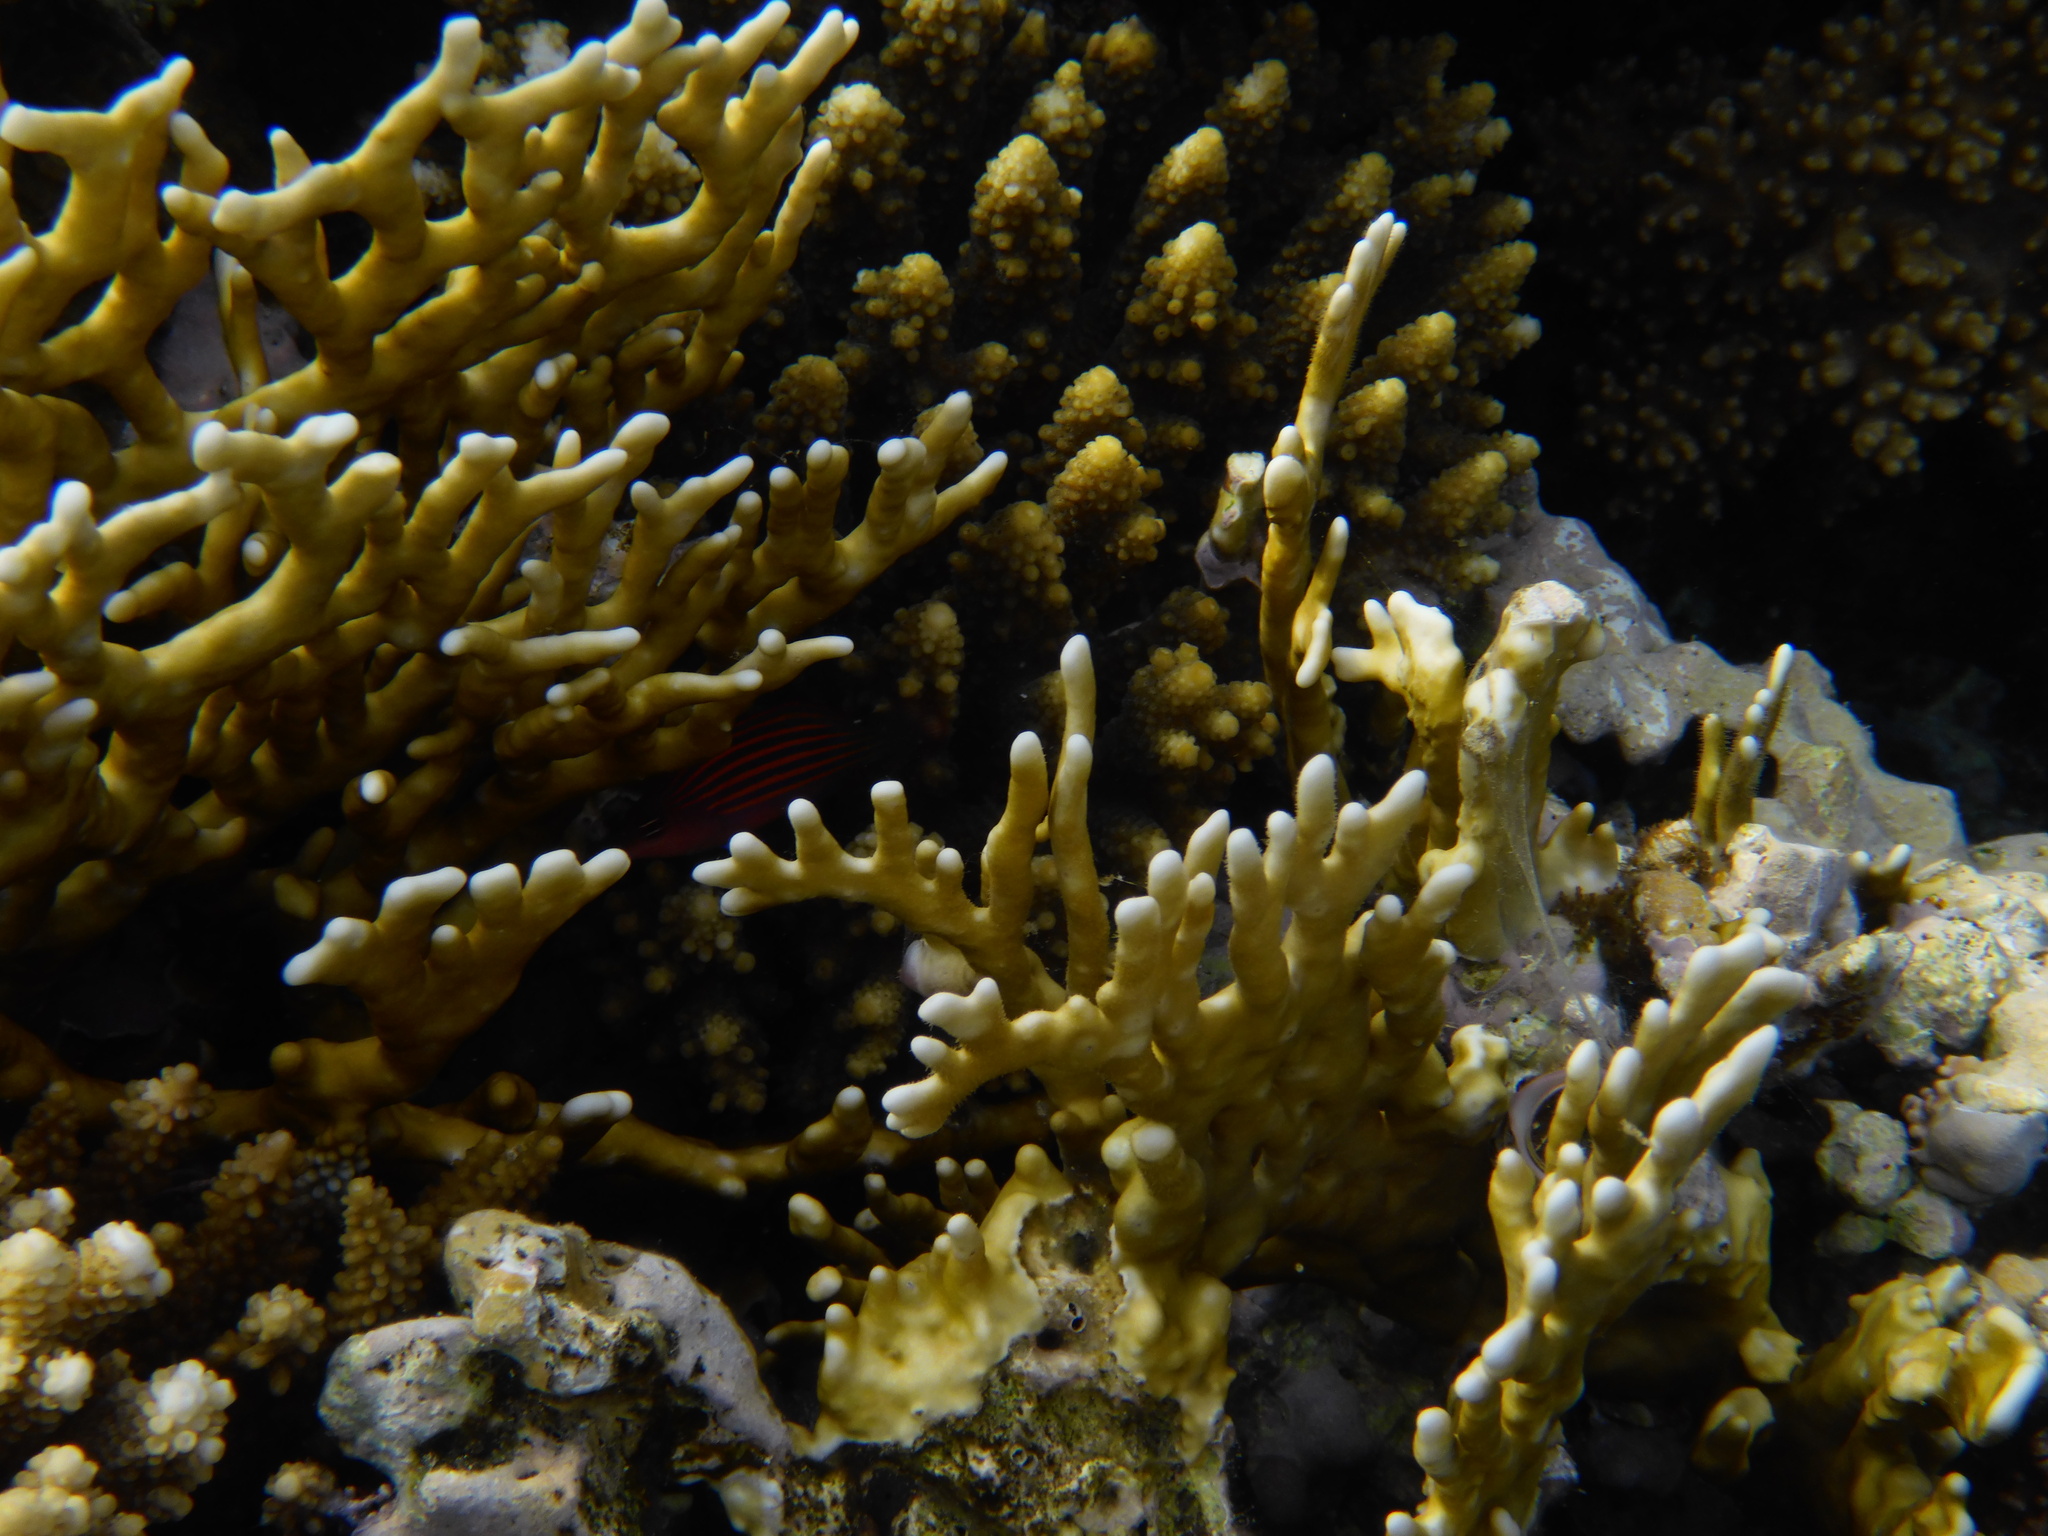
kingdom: Animalia
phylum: Chordata
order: Perciformes
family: Labridae
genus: Pseudocheilinus
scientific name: Pseudocheilinus hexataenia
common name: Sixline wrasse
